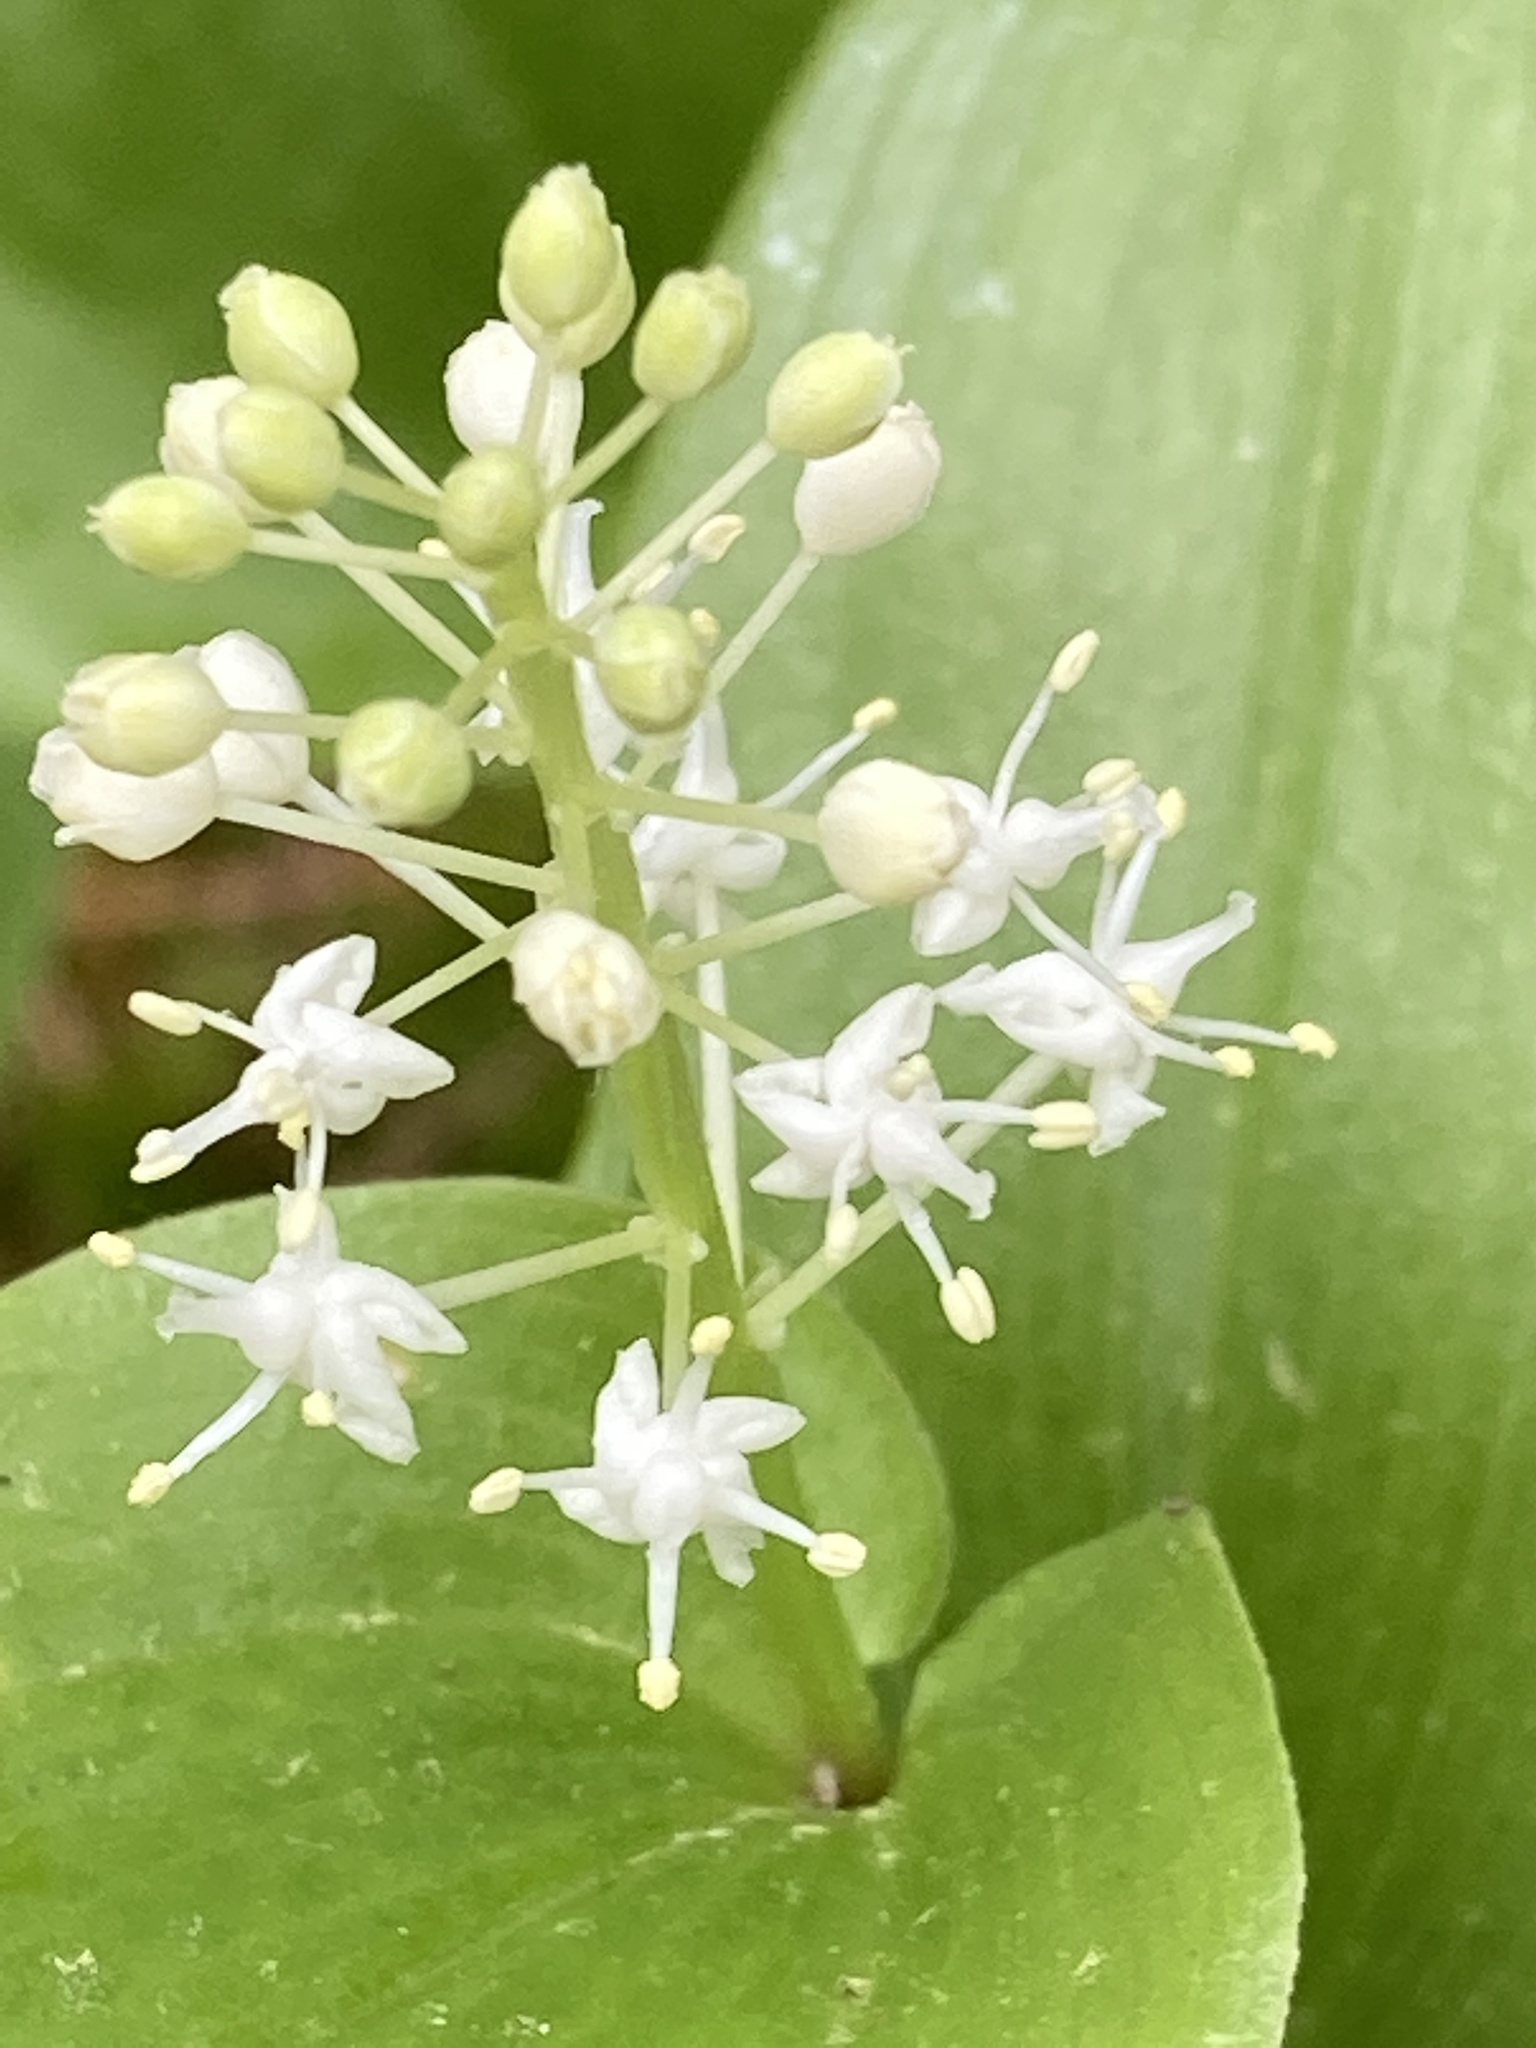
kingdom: Plantae
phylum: Tracheophyta
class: Liliopsida
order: Asparagales
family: Asparagaceae
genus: Maianthemum
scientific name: Maianthemum canadense
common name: False lily-of-the-valley
